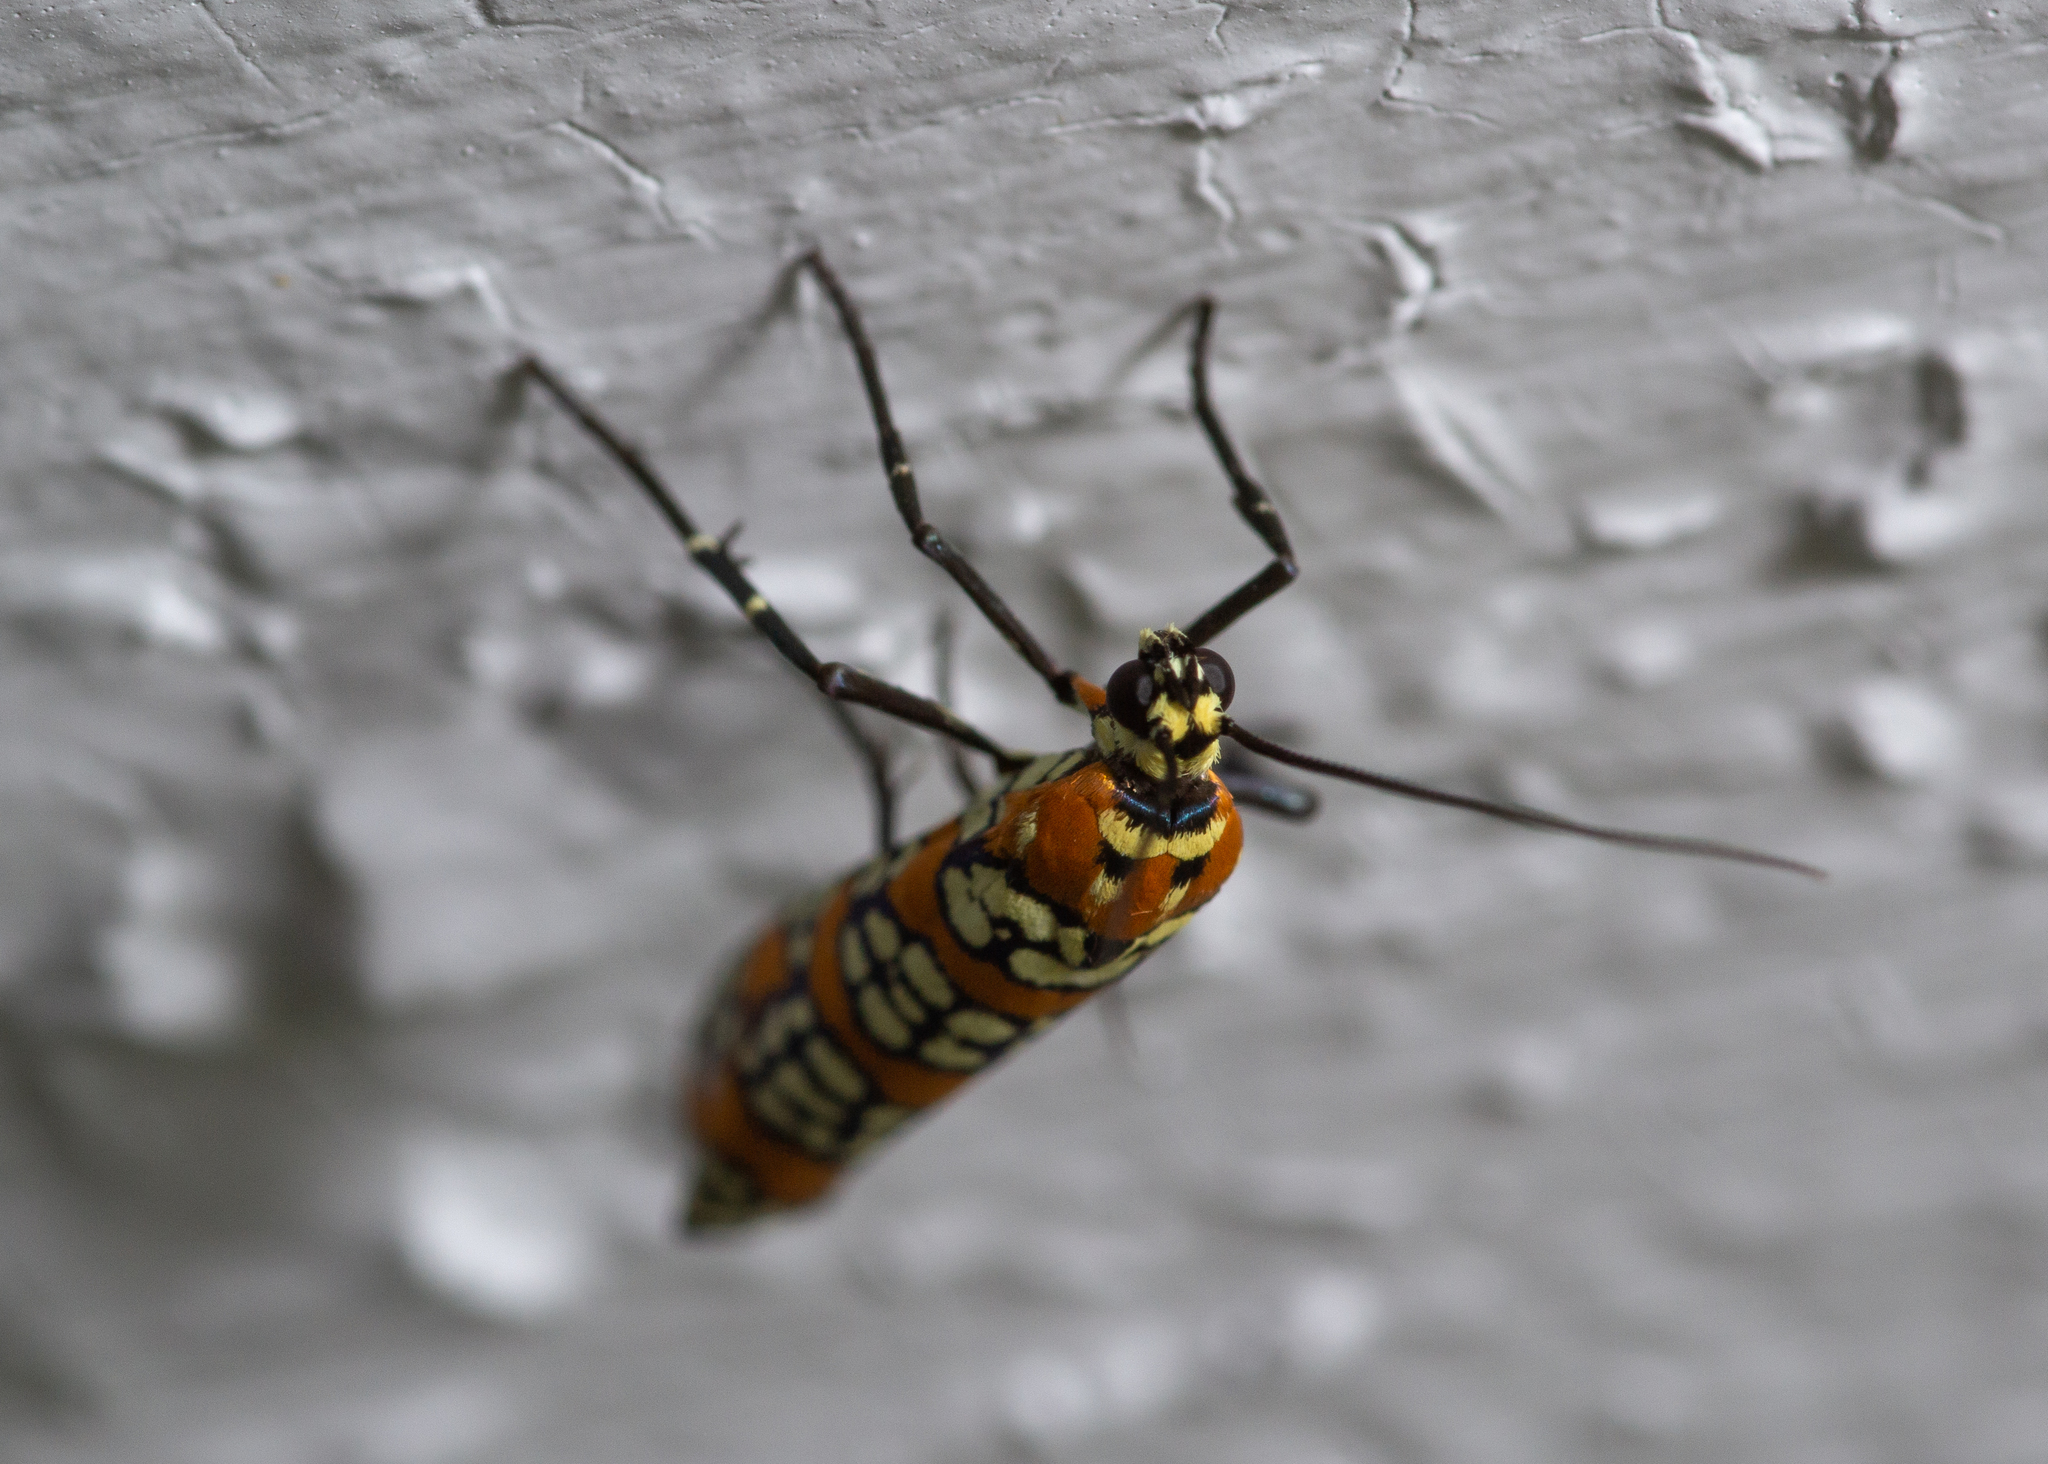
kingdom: Animalia
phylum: Arthropoda
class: Insecta
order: Lepidoptera
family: Attevidae
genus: Atteva
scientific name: Atteva punctella
